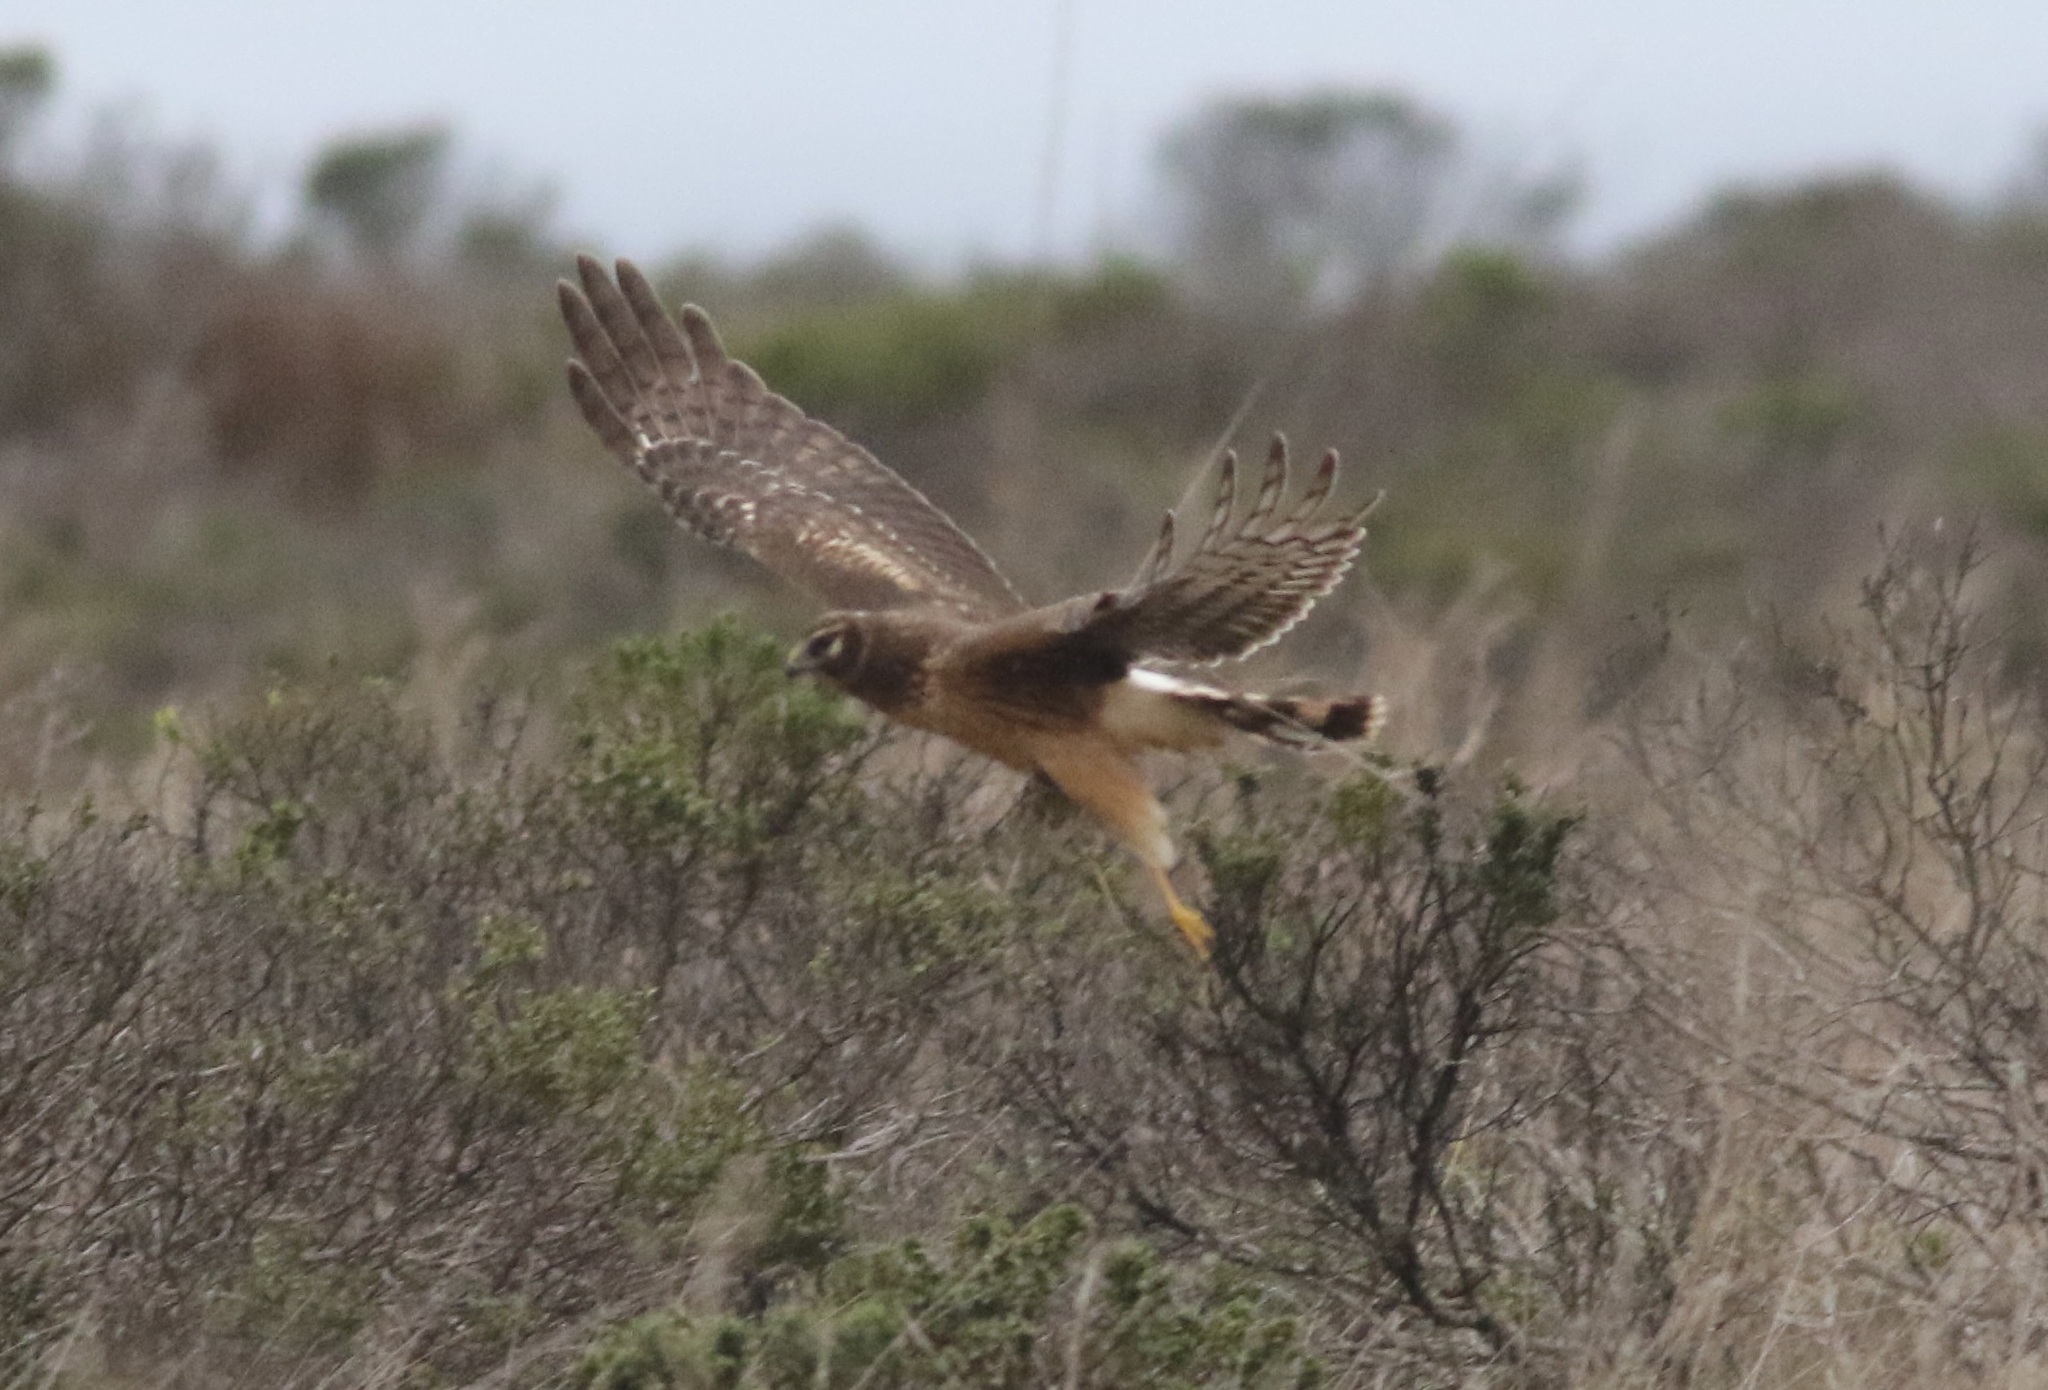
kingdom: Animalia
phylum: Chordata
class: Aves
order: Accipitriformes
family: Accipitridae
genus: Circus
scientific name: Circus cyaneus
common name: Hen harrier
